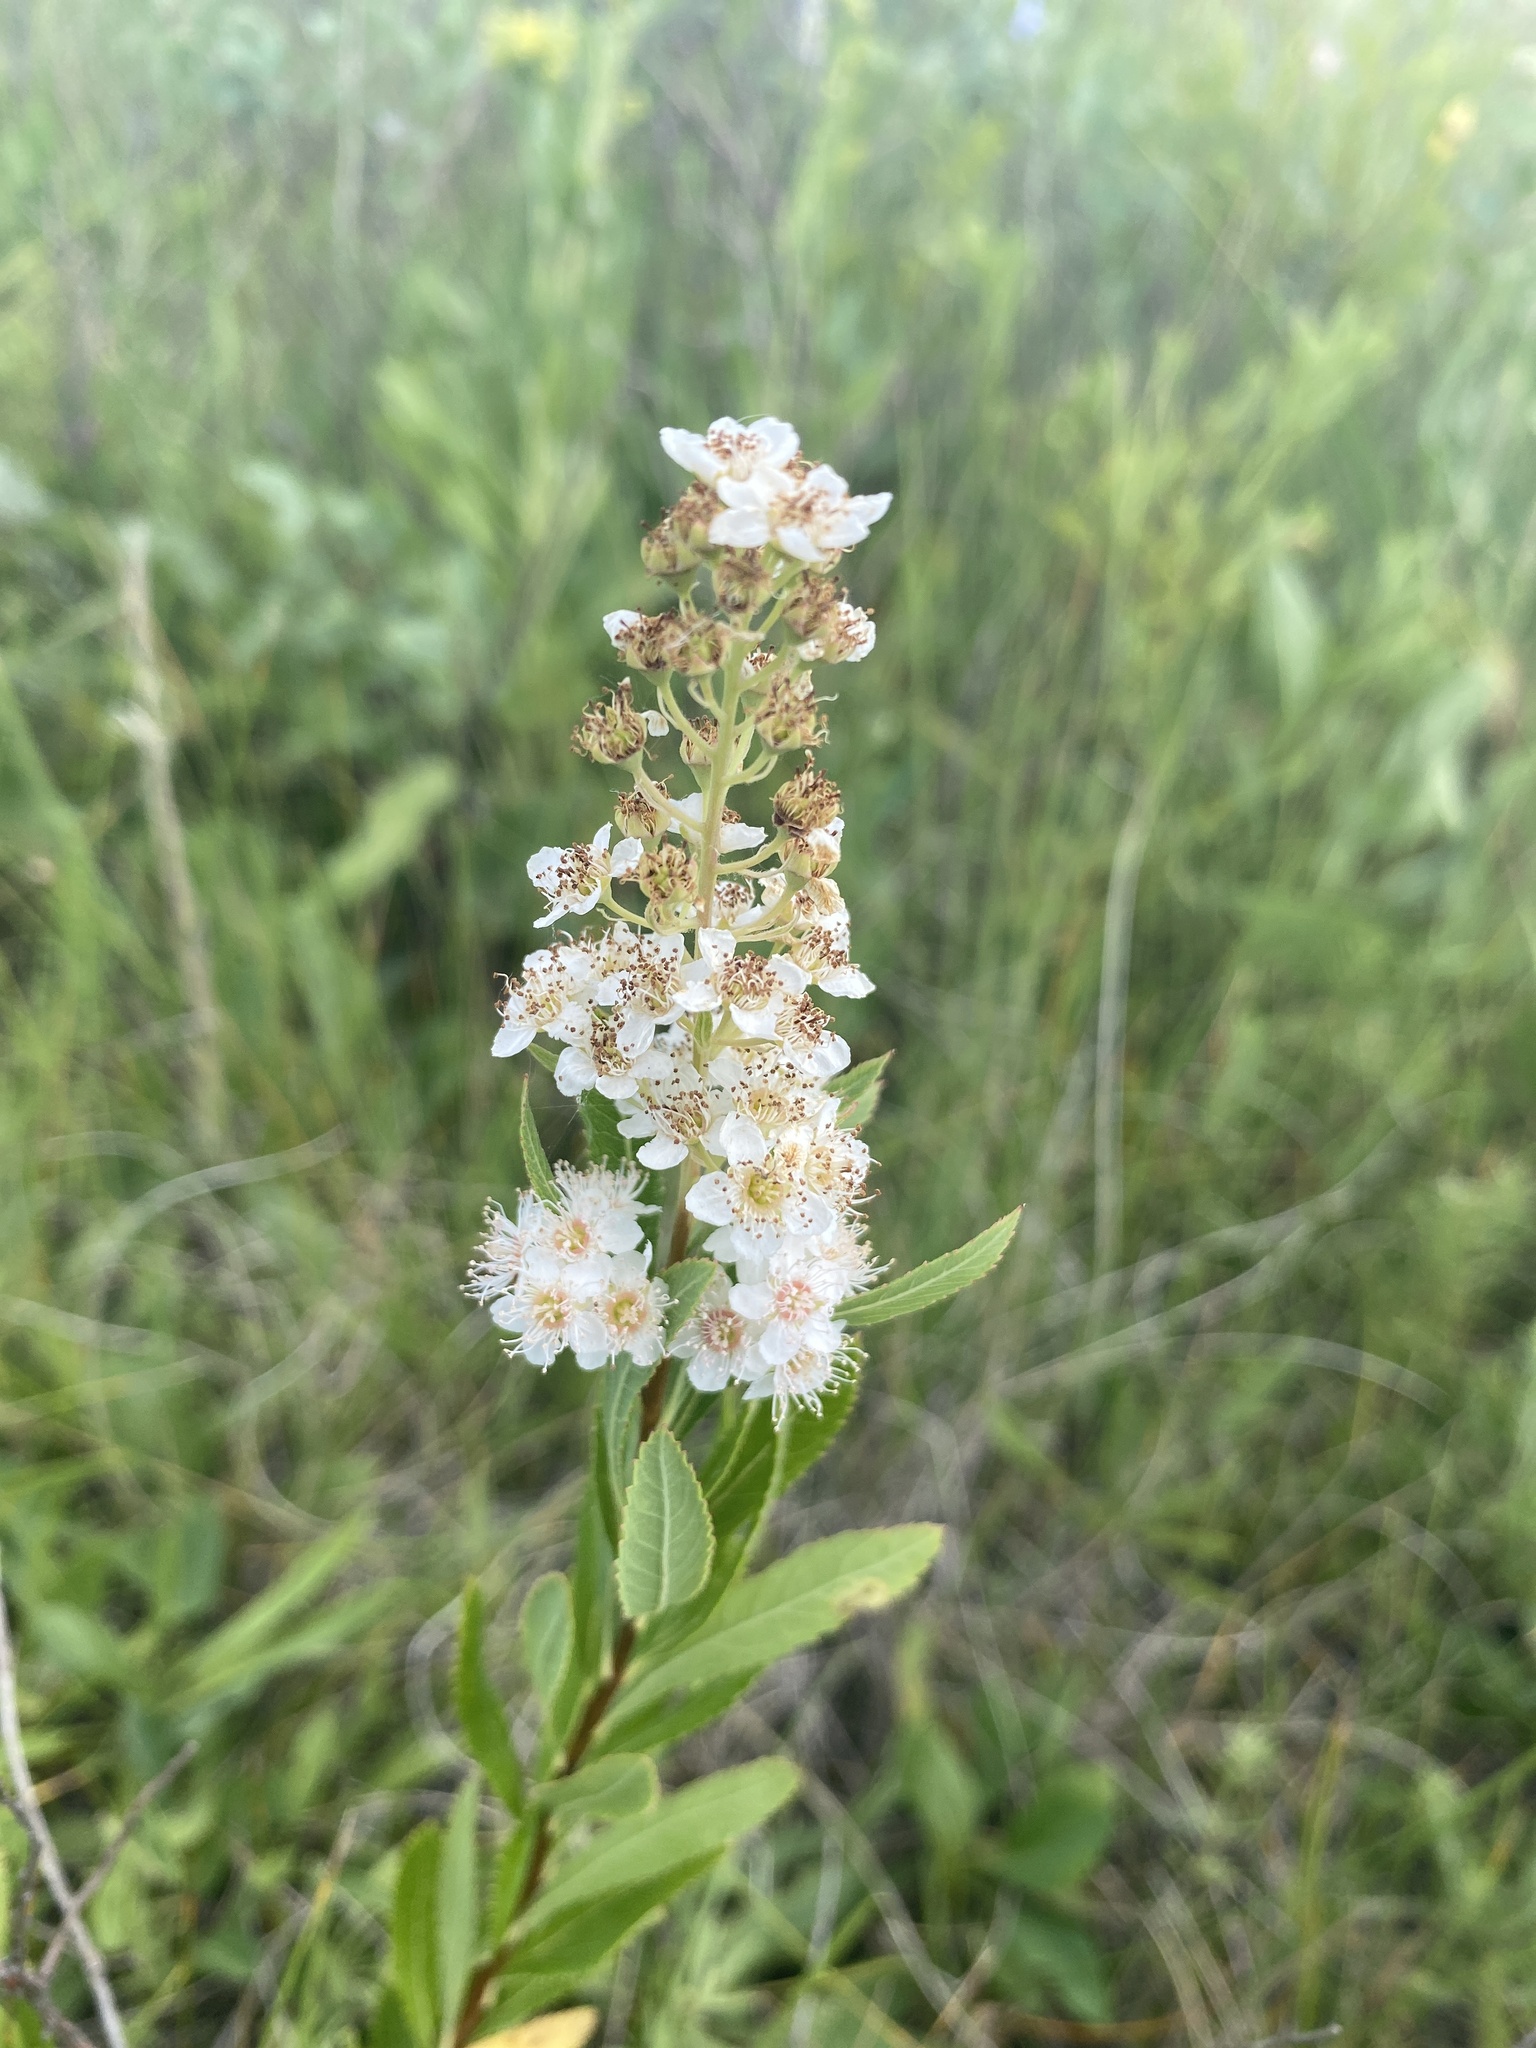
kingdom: Plantae
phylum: Tracheophyta
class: Magnoliopsida
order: Rosales
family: Rosaceae
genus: Spiraea
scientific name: Spiraea alba
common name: Pale bridewort
